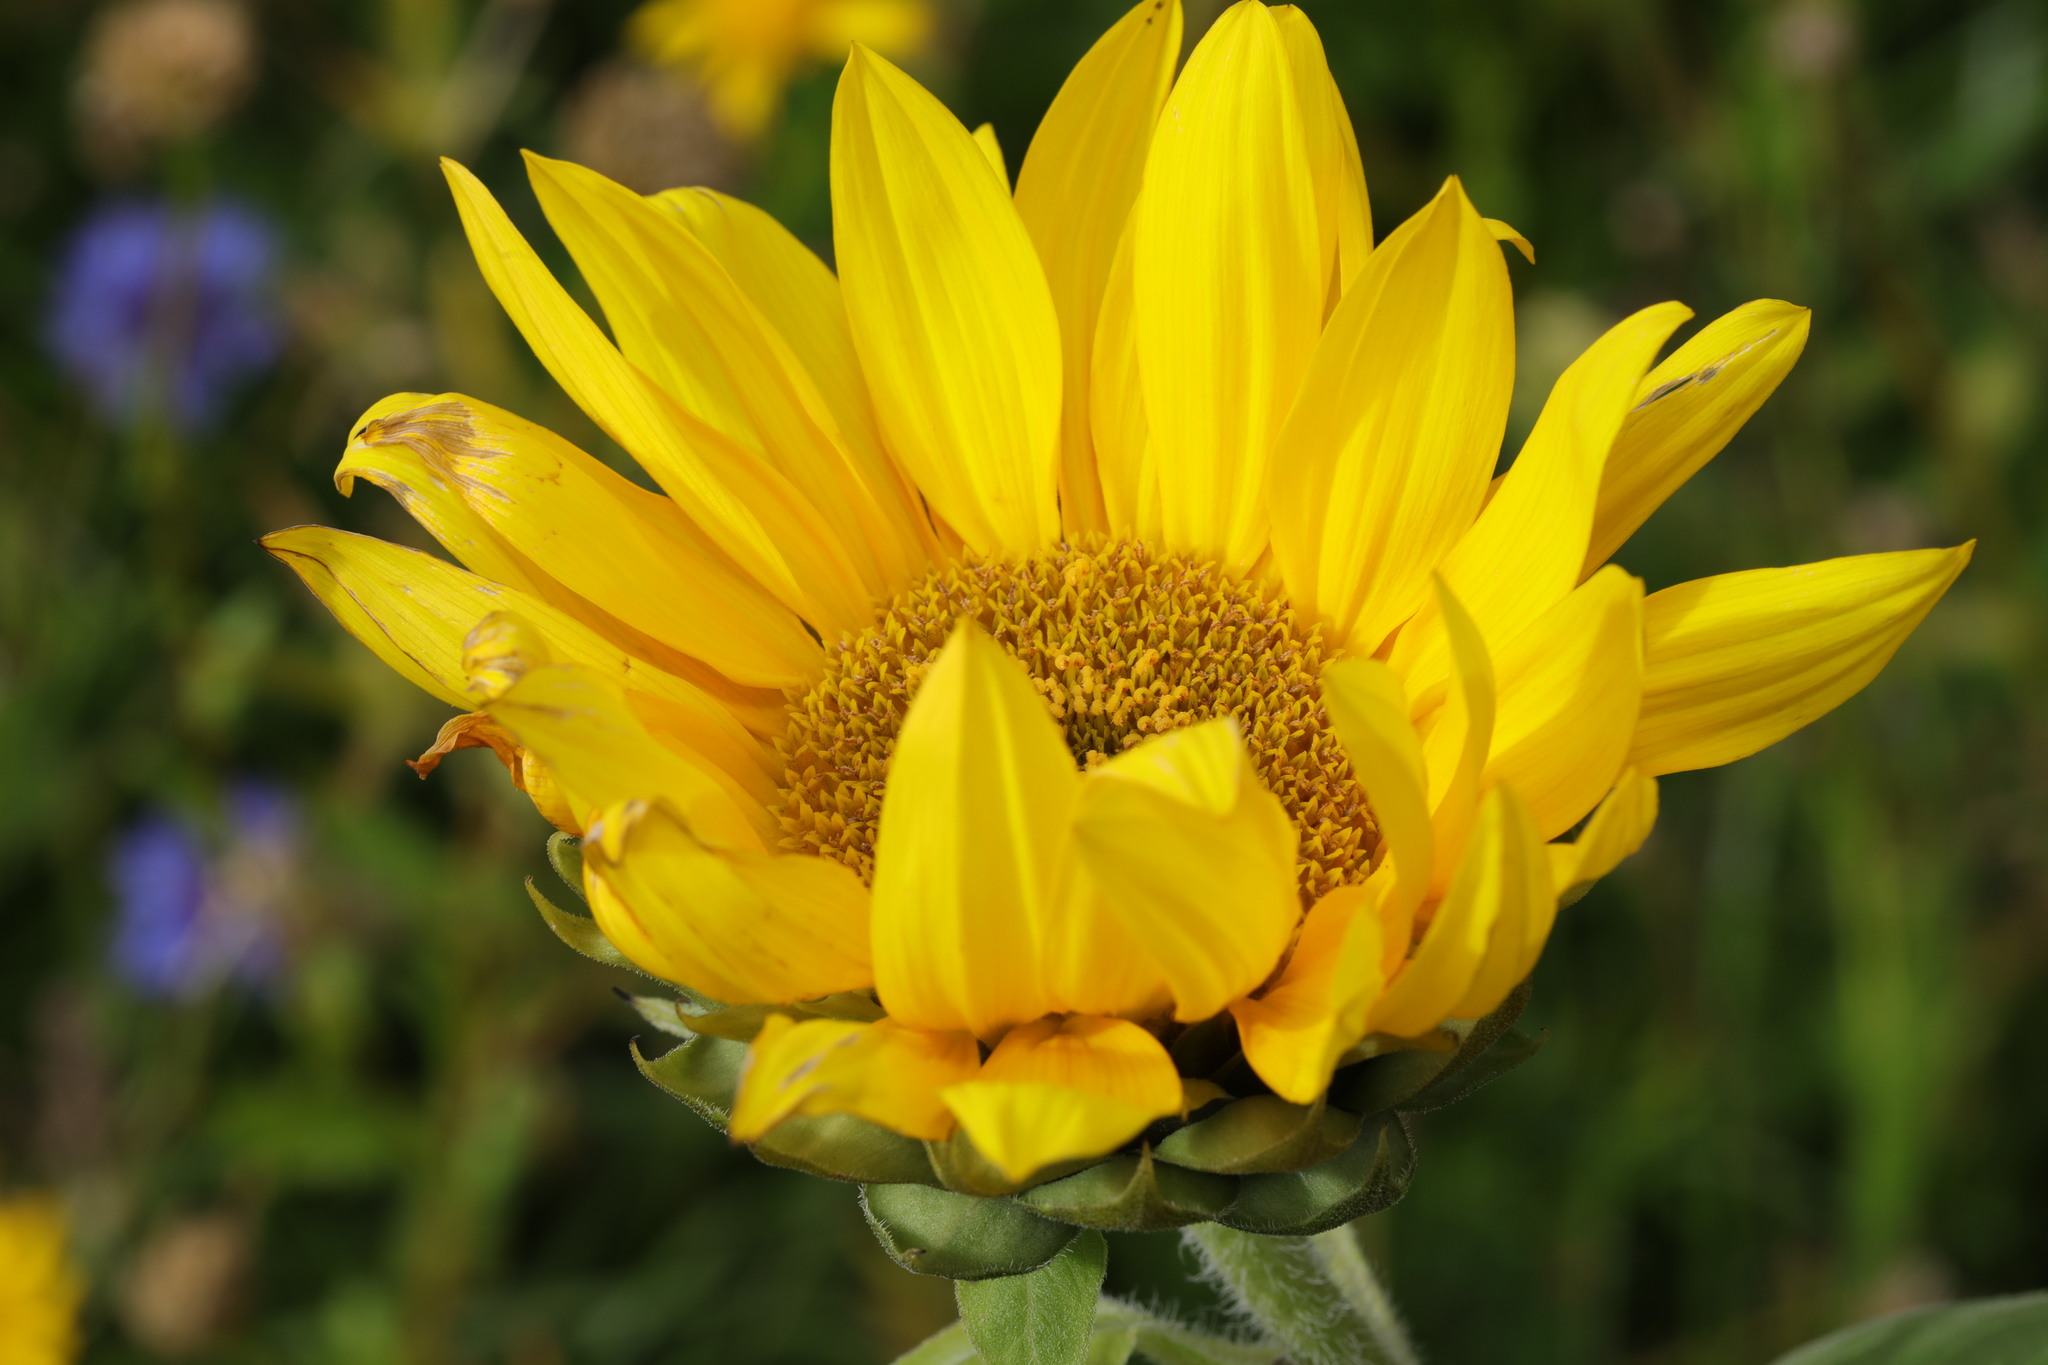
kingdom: Plantae
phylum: Tracheophyta
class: Magnoliopsida
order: Asterales
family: Asteraceae
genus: Helianthus
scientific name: Helianthus annuus
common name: Sunflower
